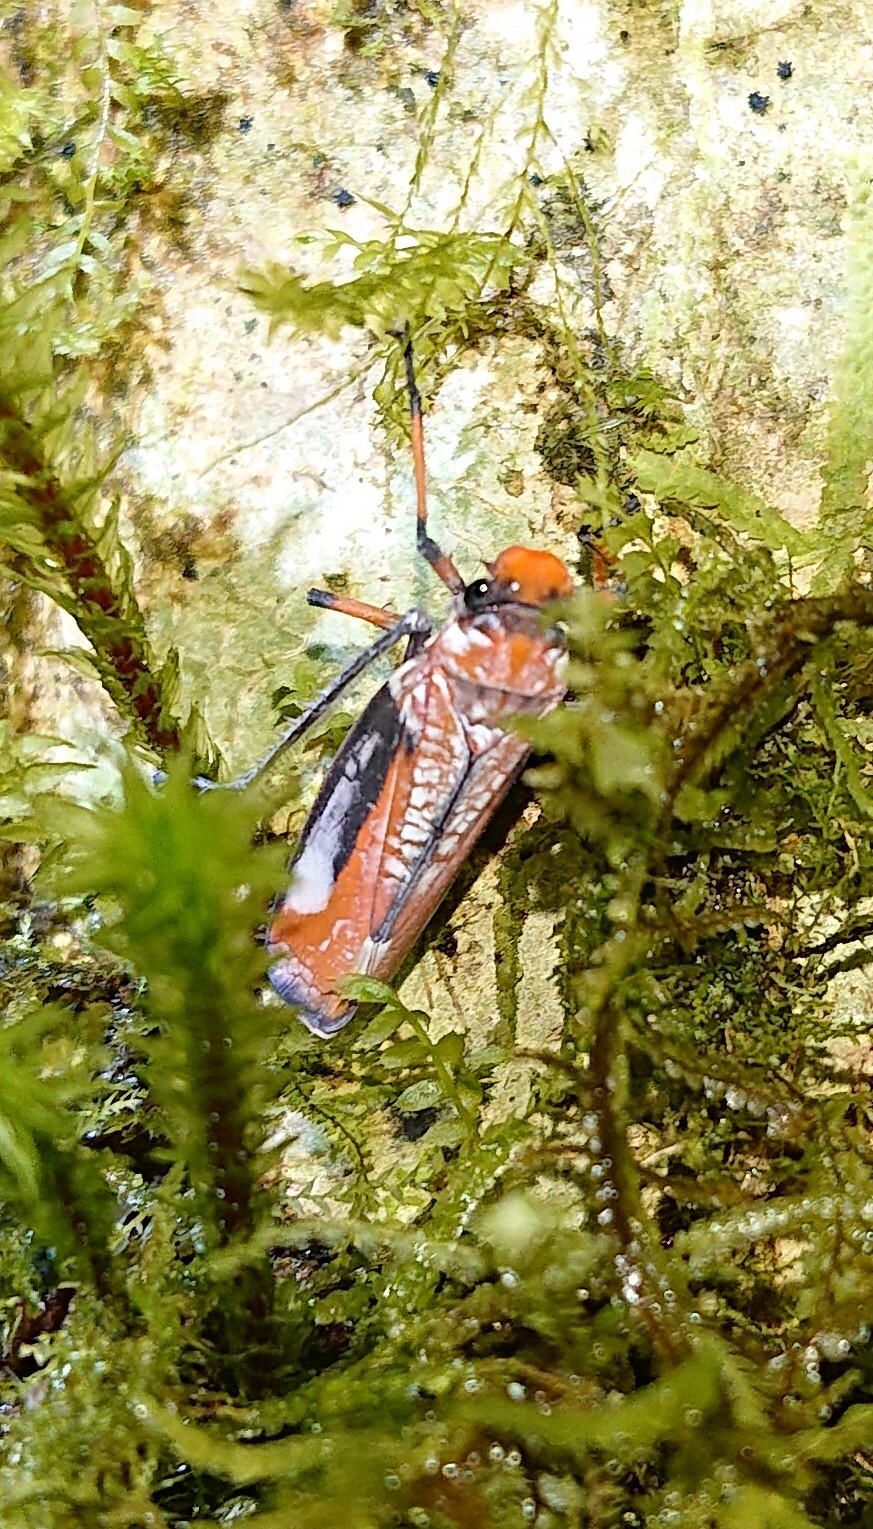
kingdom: Animalia
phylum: Arthropoda
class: Insecta
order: Hemiptera
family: Cicadellidae
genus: Onega
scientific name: Onega avella
